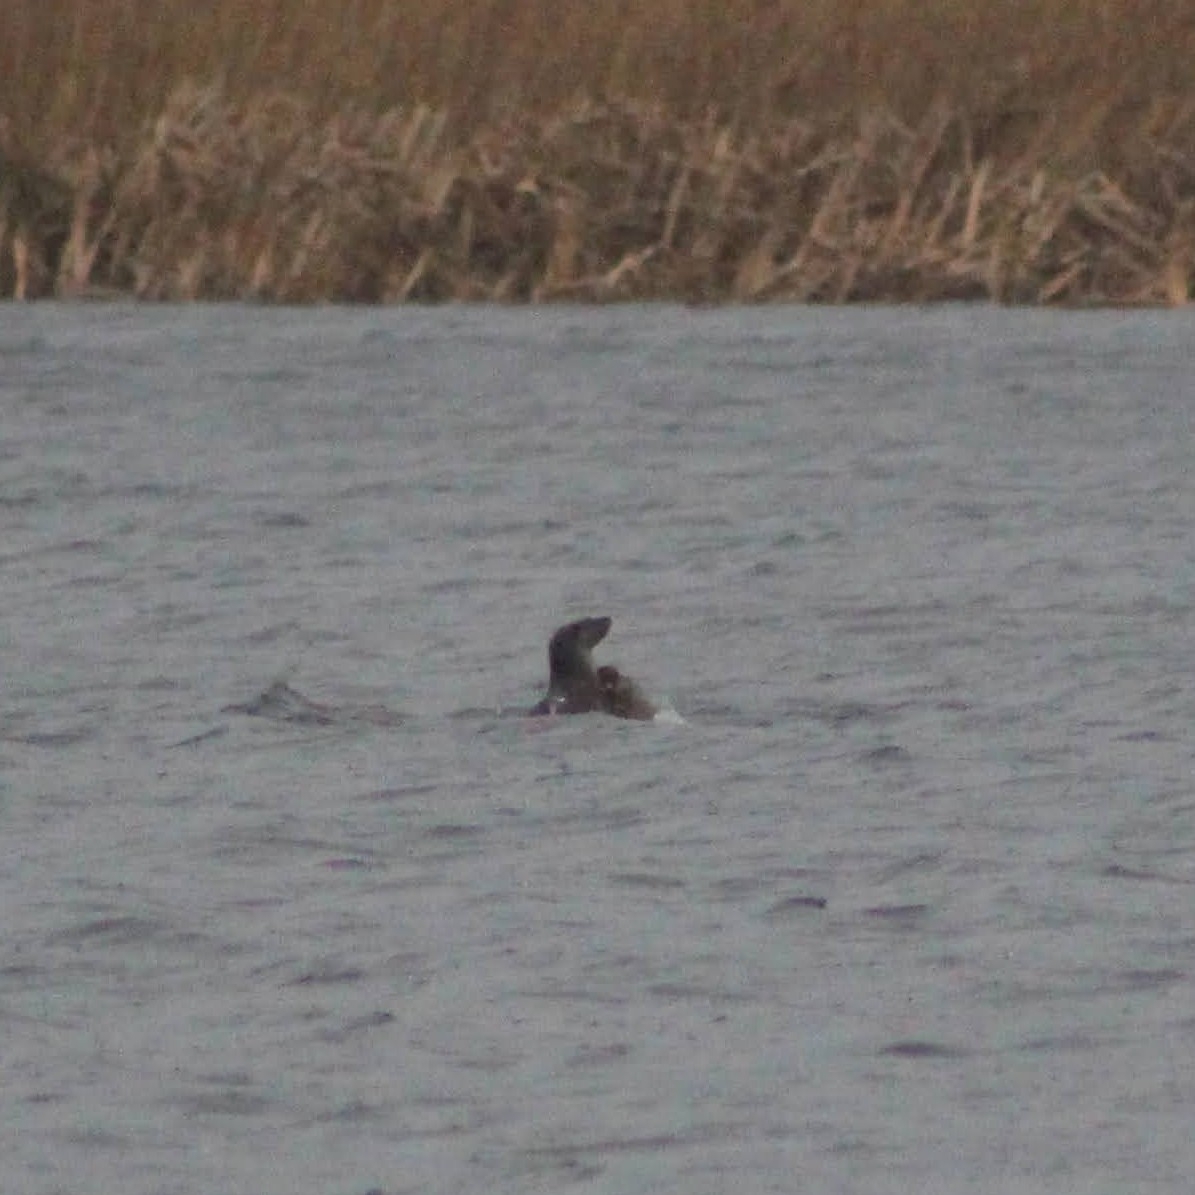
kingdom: Animalia
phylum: Chordata
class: Mammalia
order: Carnivora
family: Mustelidae
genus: Lutra
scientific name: Lutra lutra
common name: European otter
